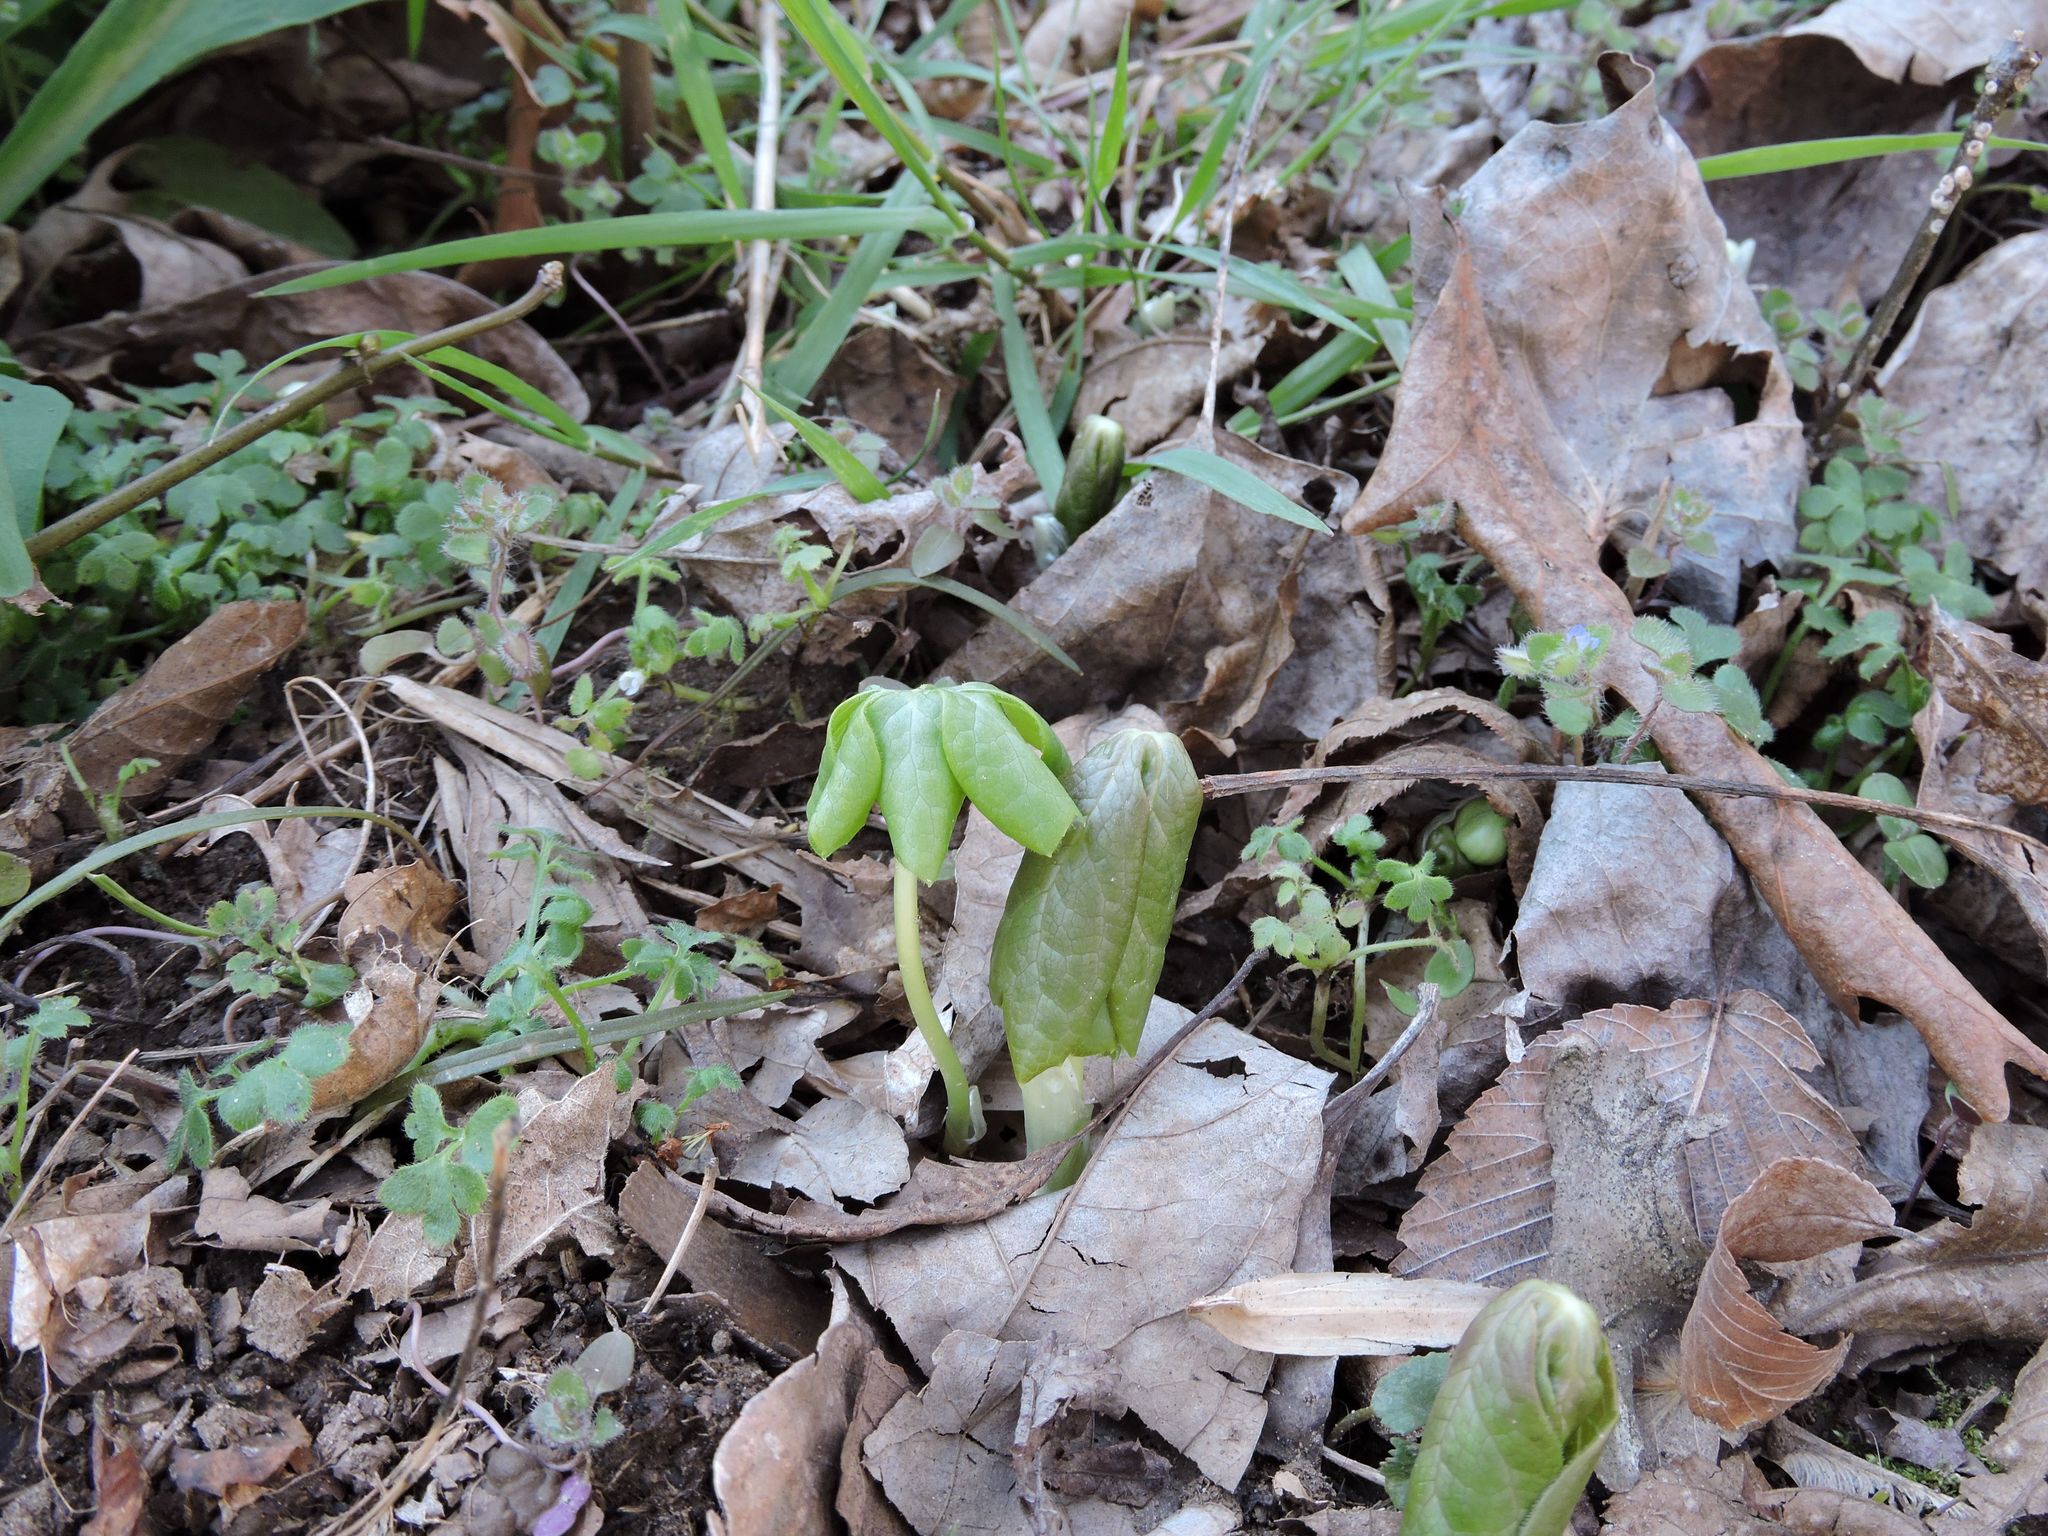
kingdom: Plantae
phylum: Tracheophyta
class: Magnoliopsida
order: Ranunculales
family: Berberidaceae
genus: Podophyllum
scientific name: Podophyllum peltatum
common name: Wild mandrake
